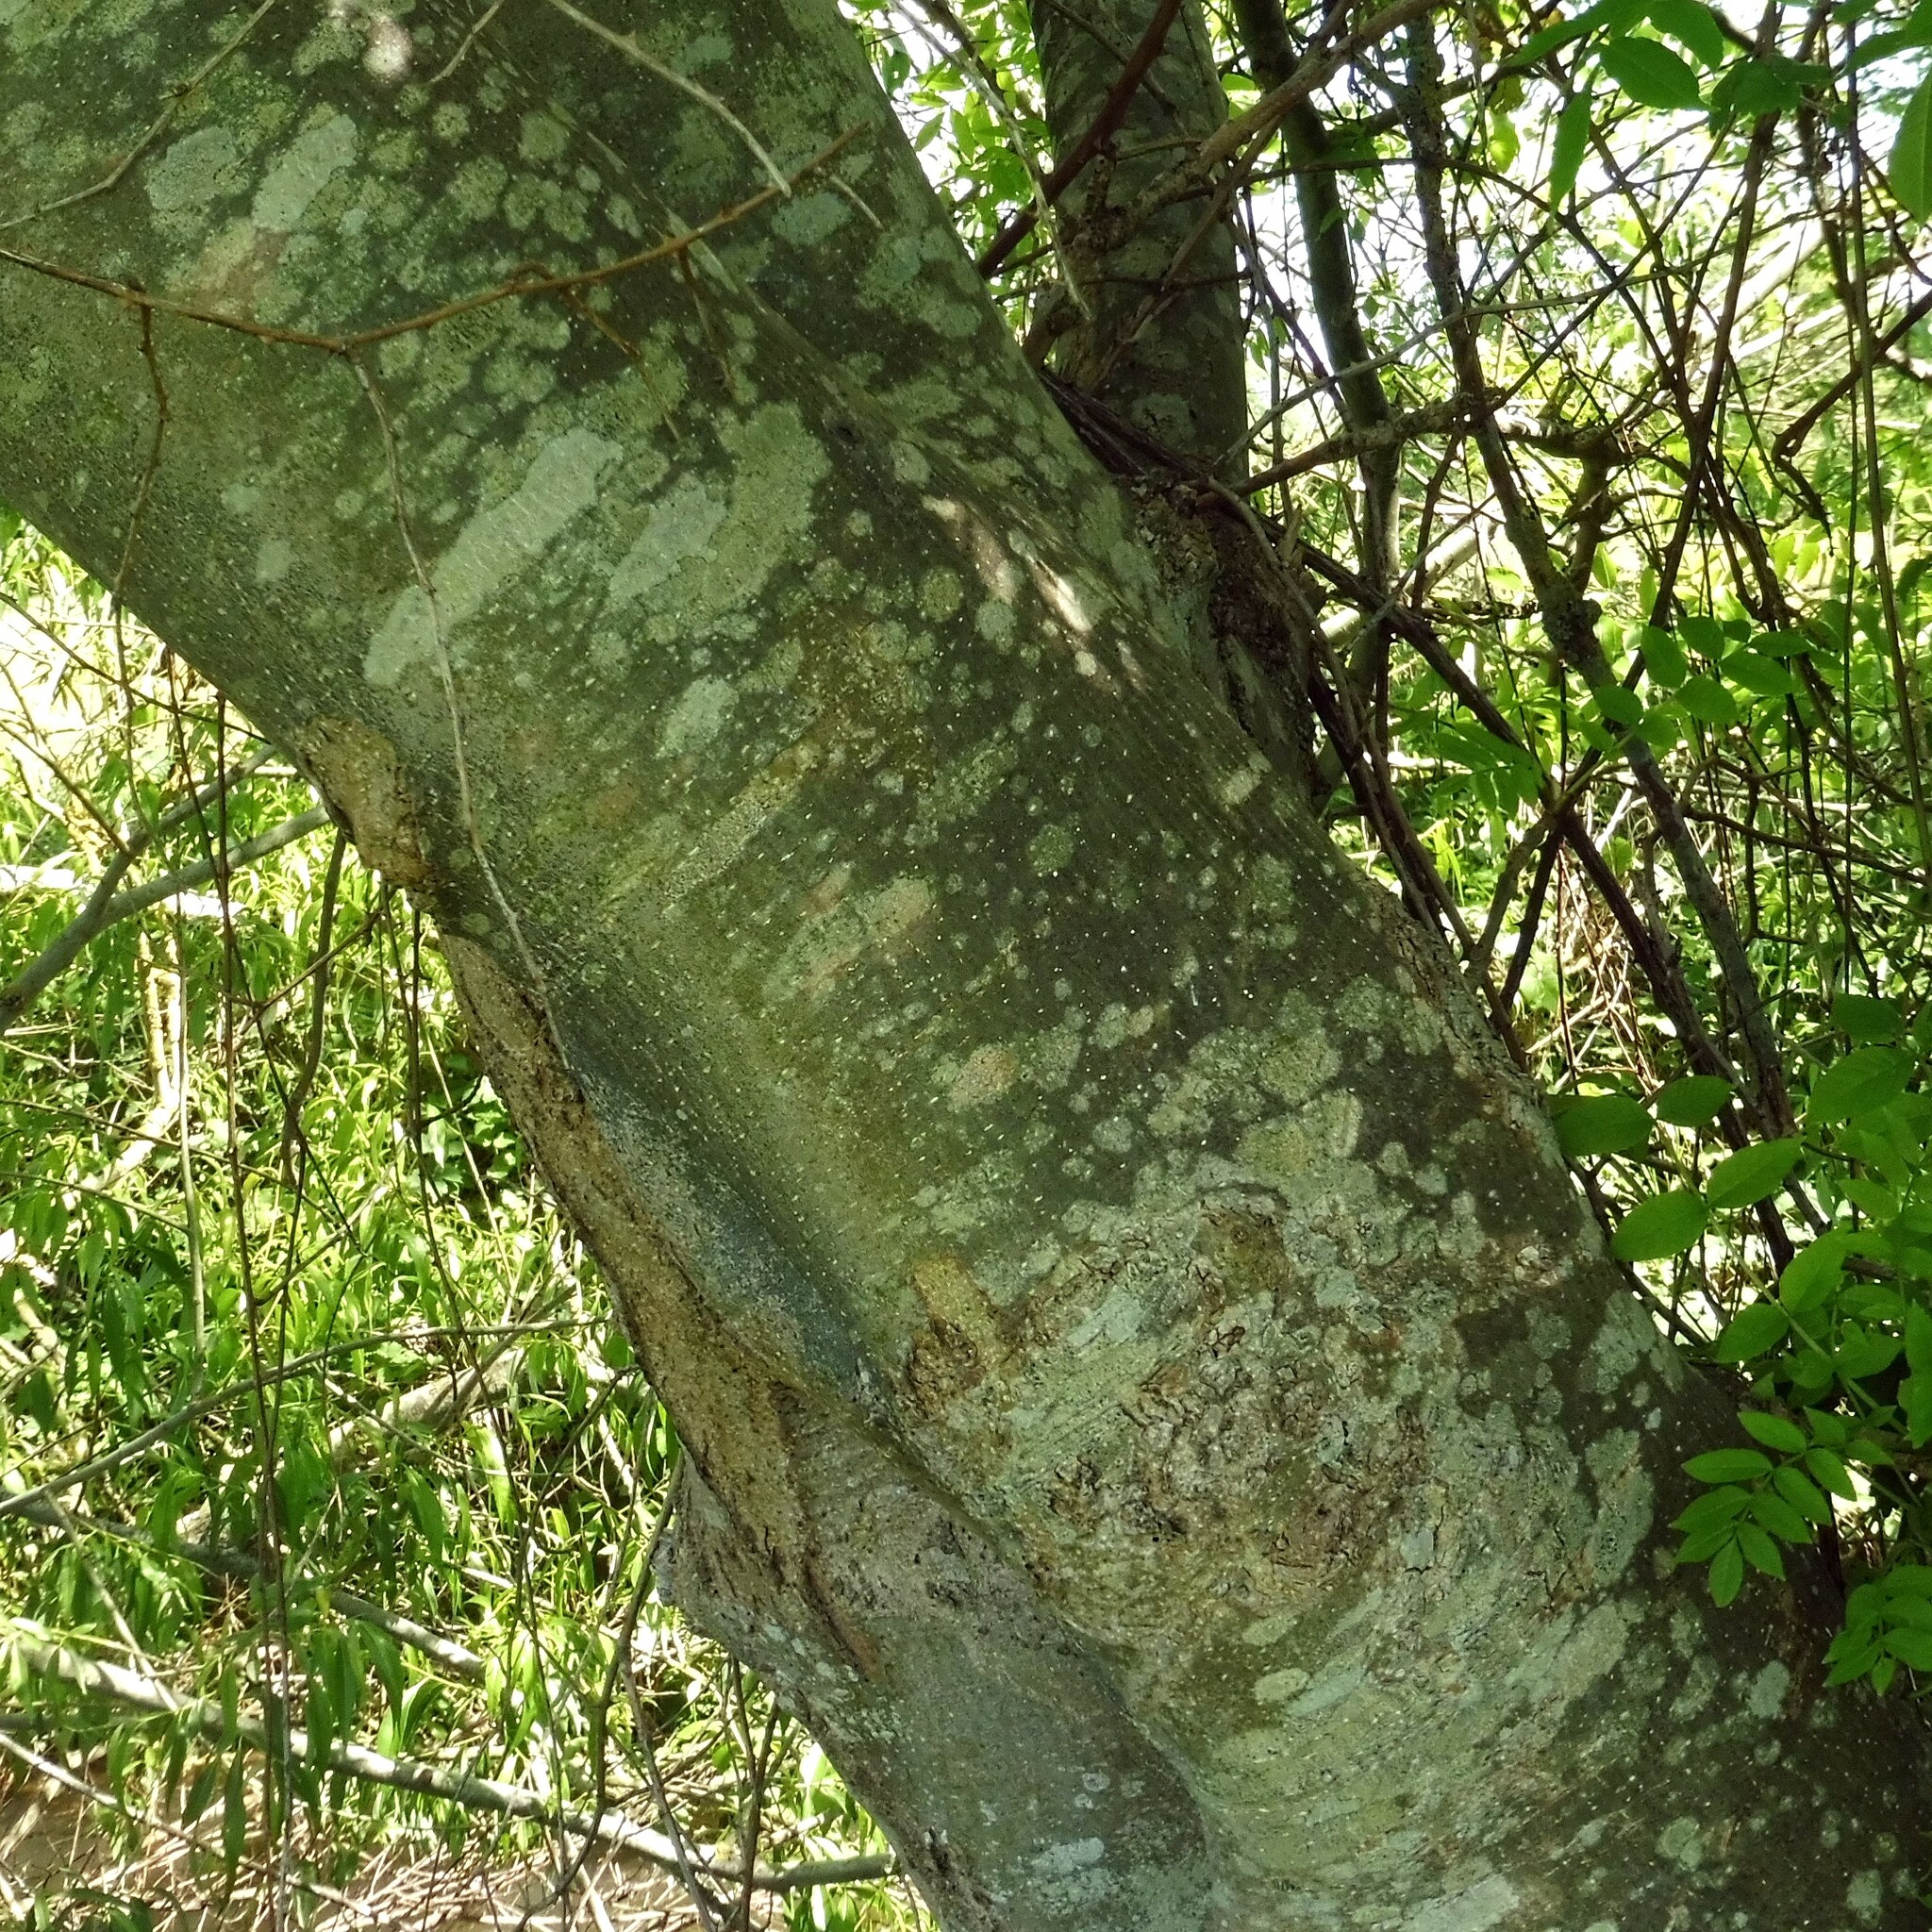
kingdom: Plantae
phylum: Tracheophyta
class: Magnoliopsida
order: Lamiales
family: Oleaceae
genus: Fraxinus
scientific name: Fraxinus excelsior
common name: European ash
